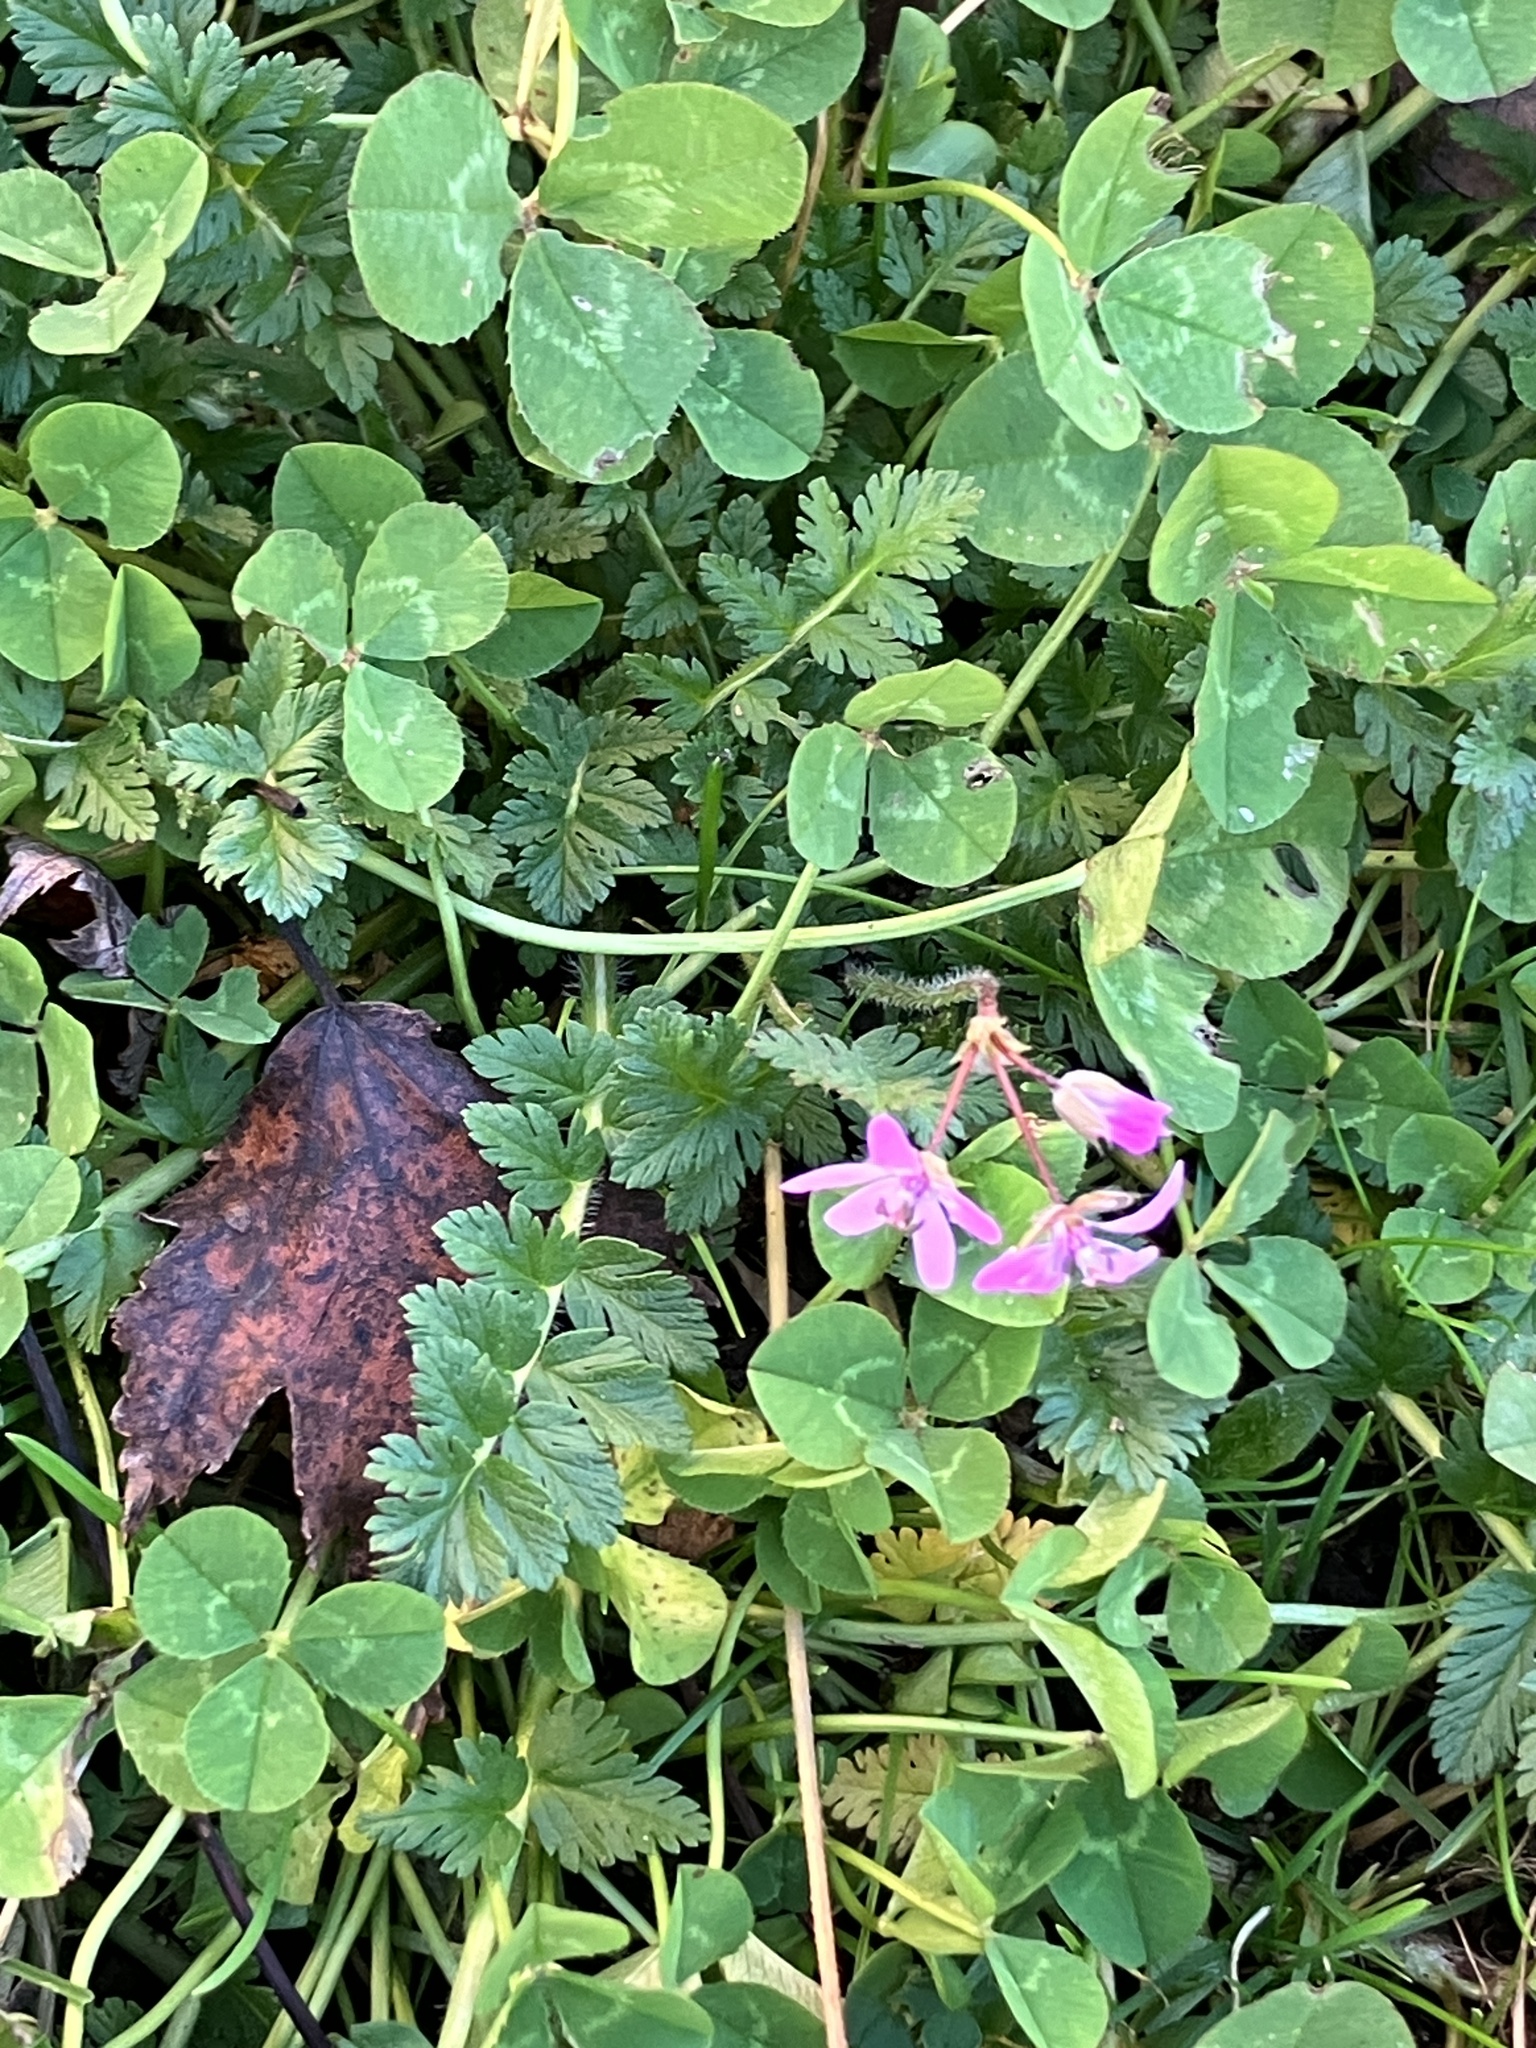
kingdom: Plantae
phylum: Tracheophyta
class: Magnoliopsida
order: Geraniales
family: Geraniaceae
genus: Erodium
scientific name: Erodium moschatum
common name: Musk stork's-bill
